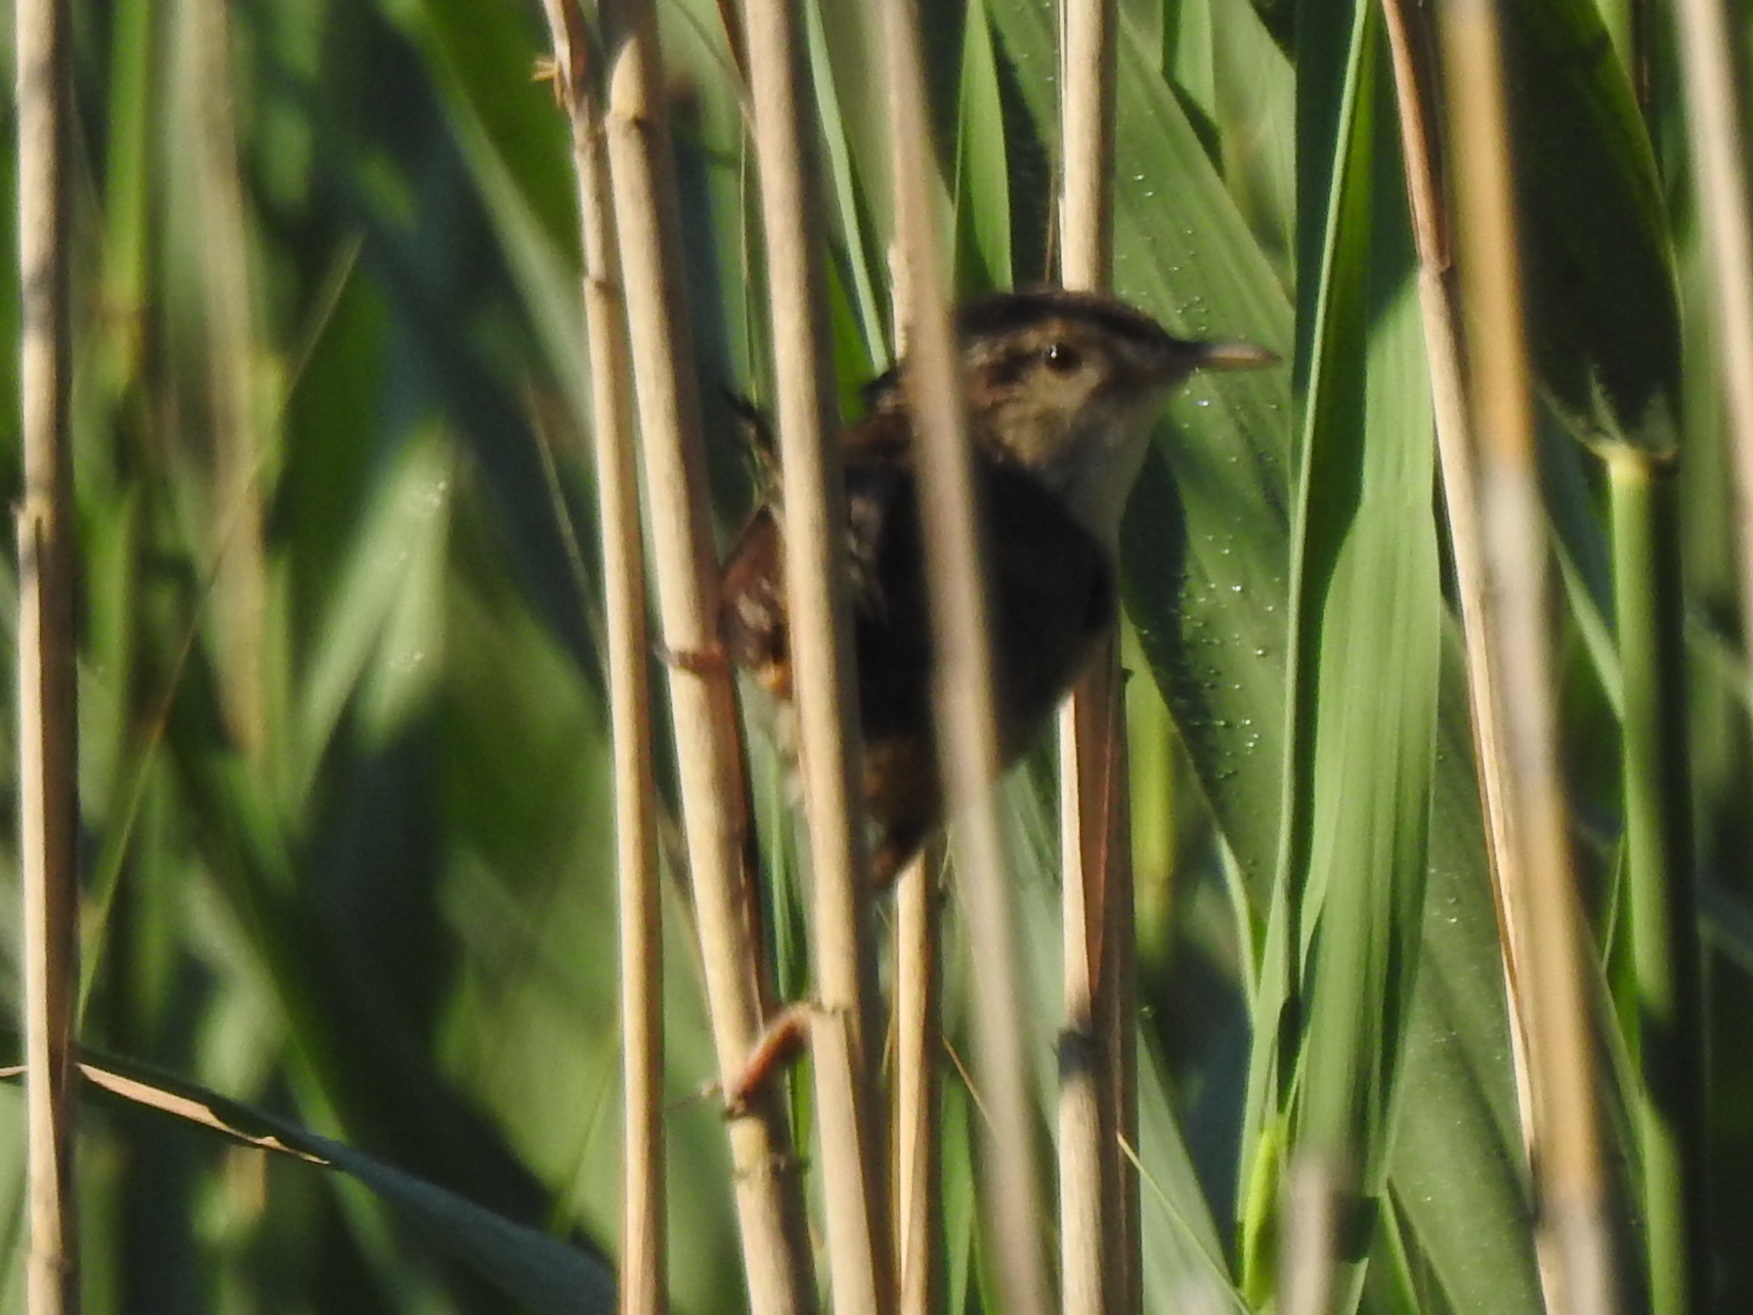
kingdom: Animalia
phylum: Chordata
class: Aves
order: Passeriformes
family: Troglodytidae
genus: Cistothorus
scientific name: Cistothorus palustris
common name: Marsh wren
